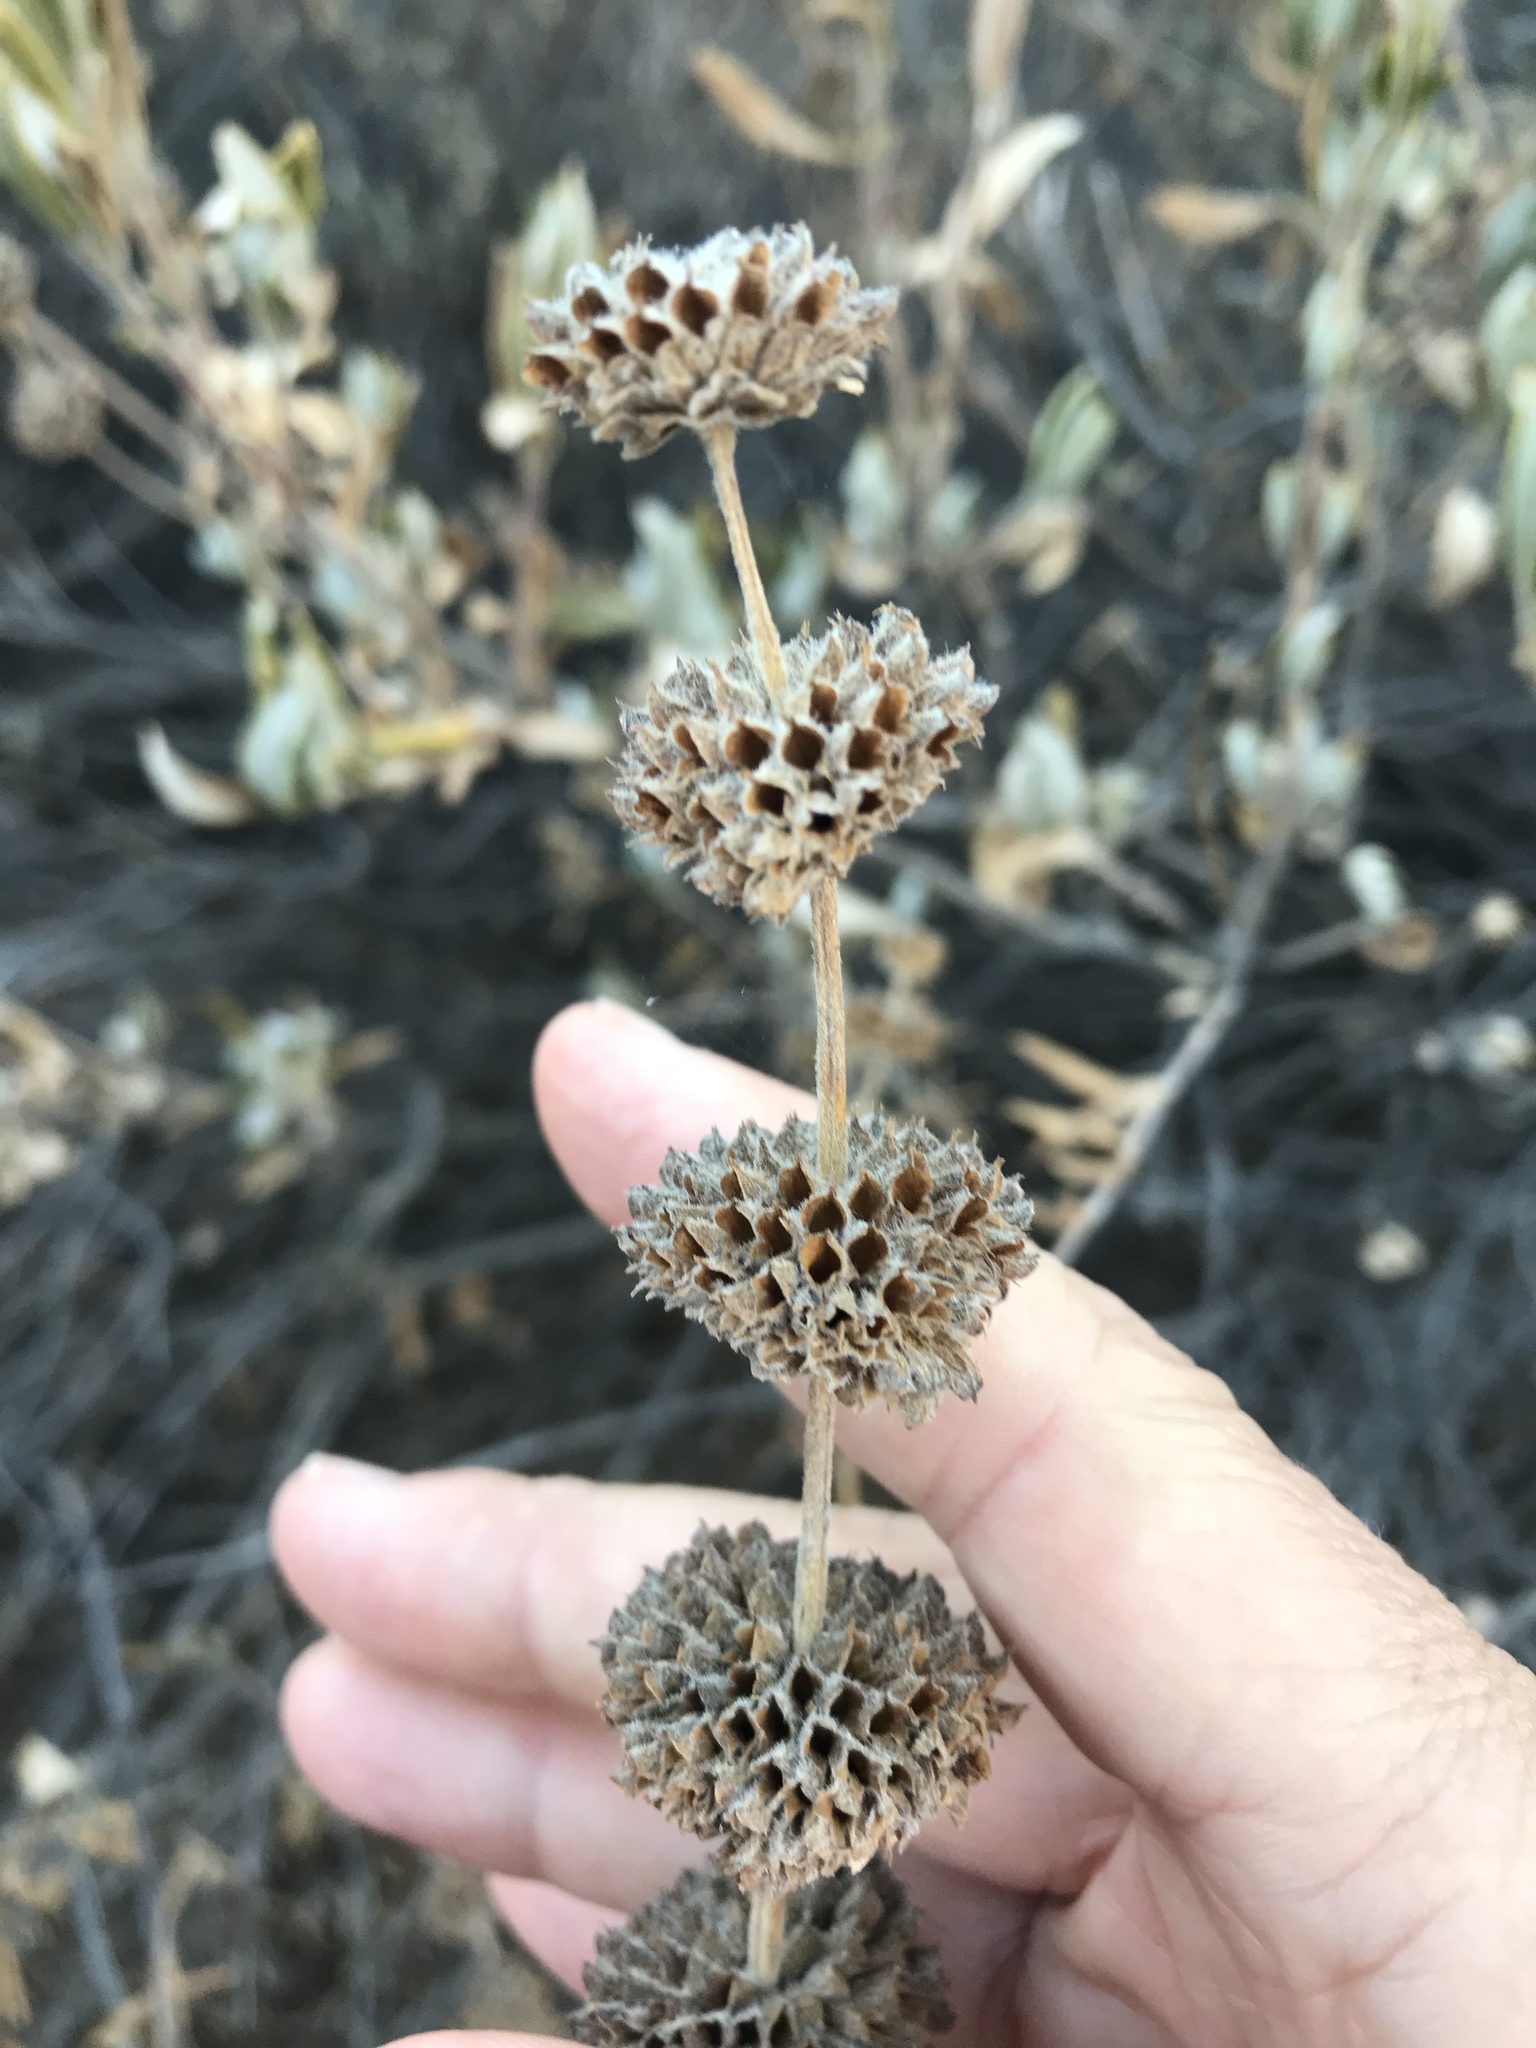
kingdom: Plantae
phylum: Tracheophyta
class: Magnoliopsida
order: Lamiales
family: Lamiaceae
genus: Salvia
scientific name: Salvia mellifera
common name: Black sage
